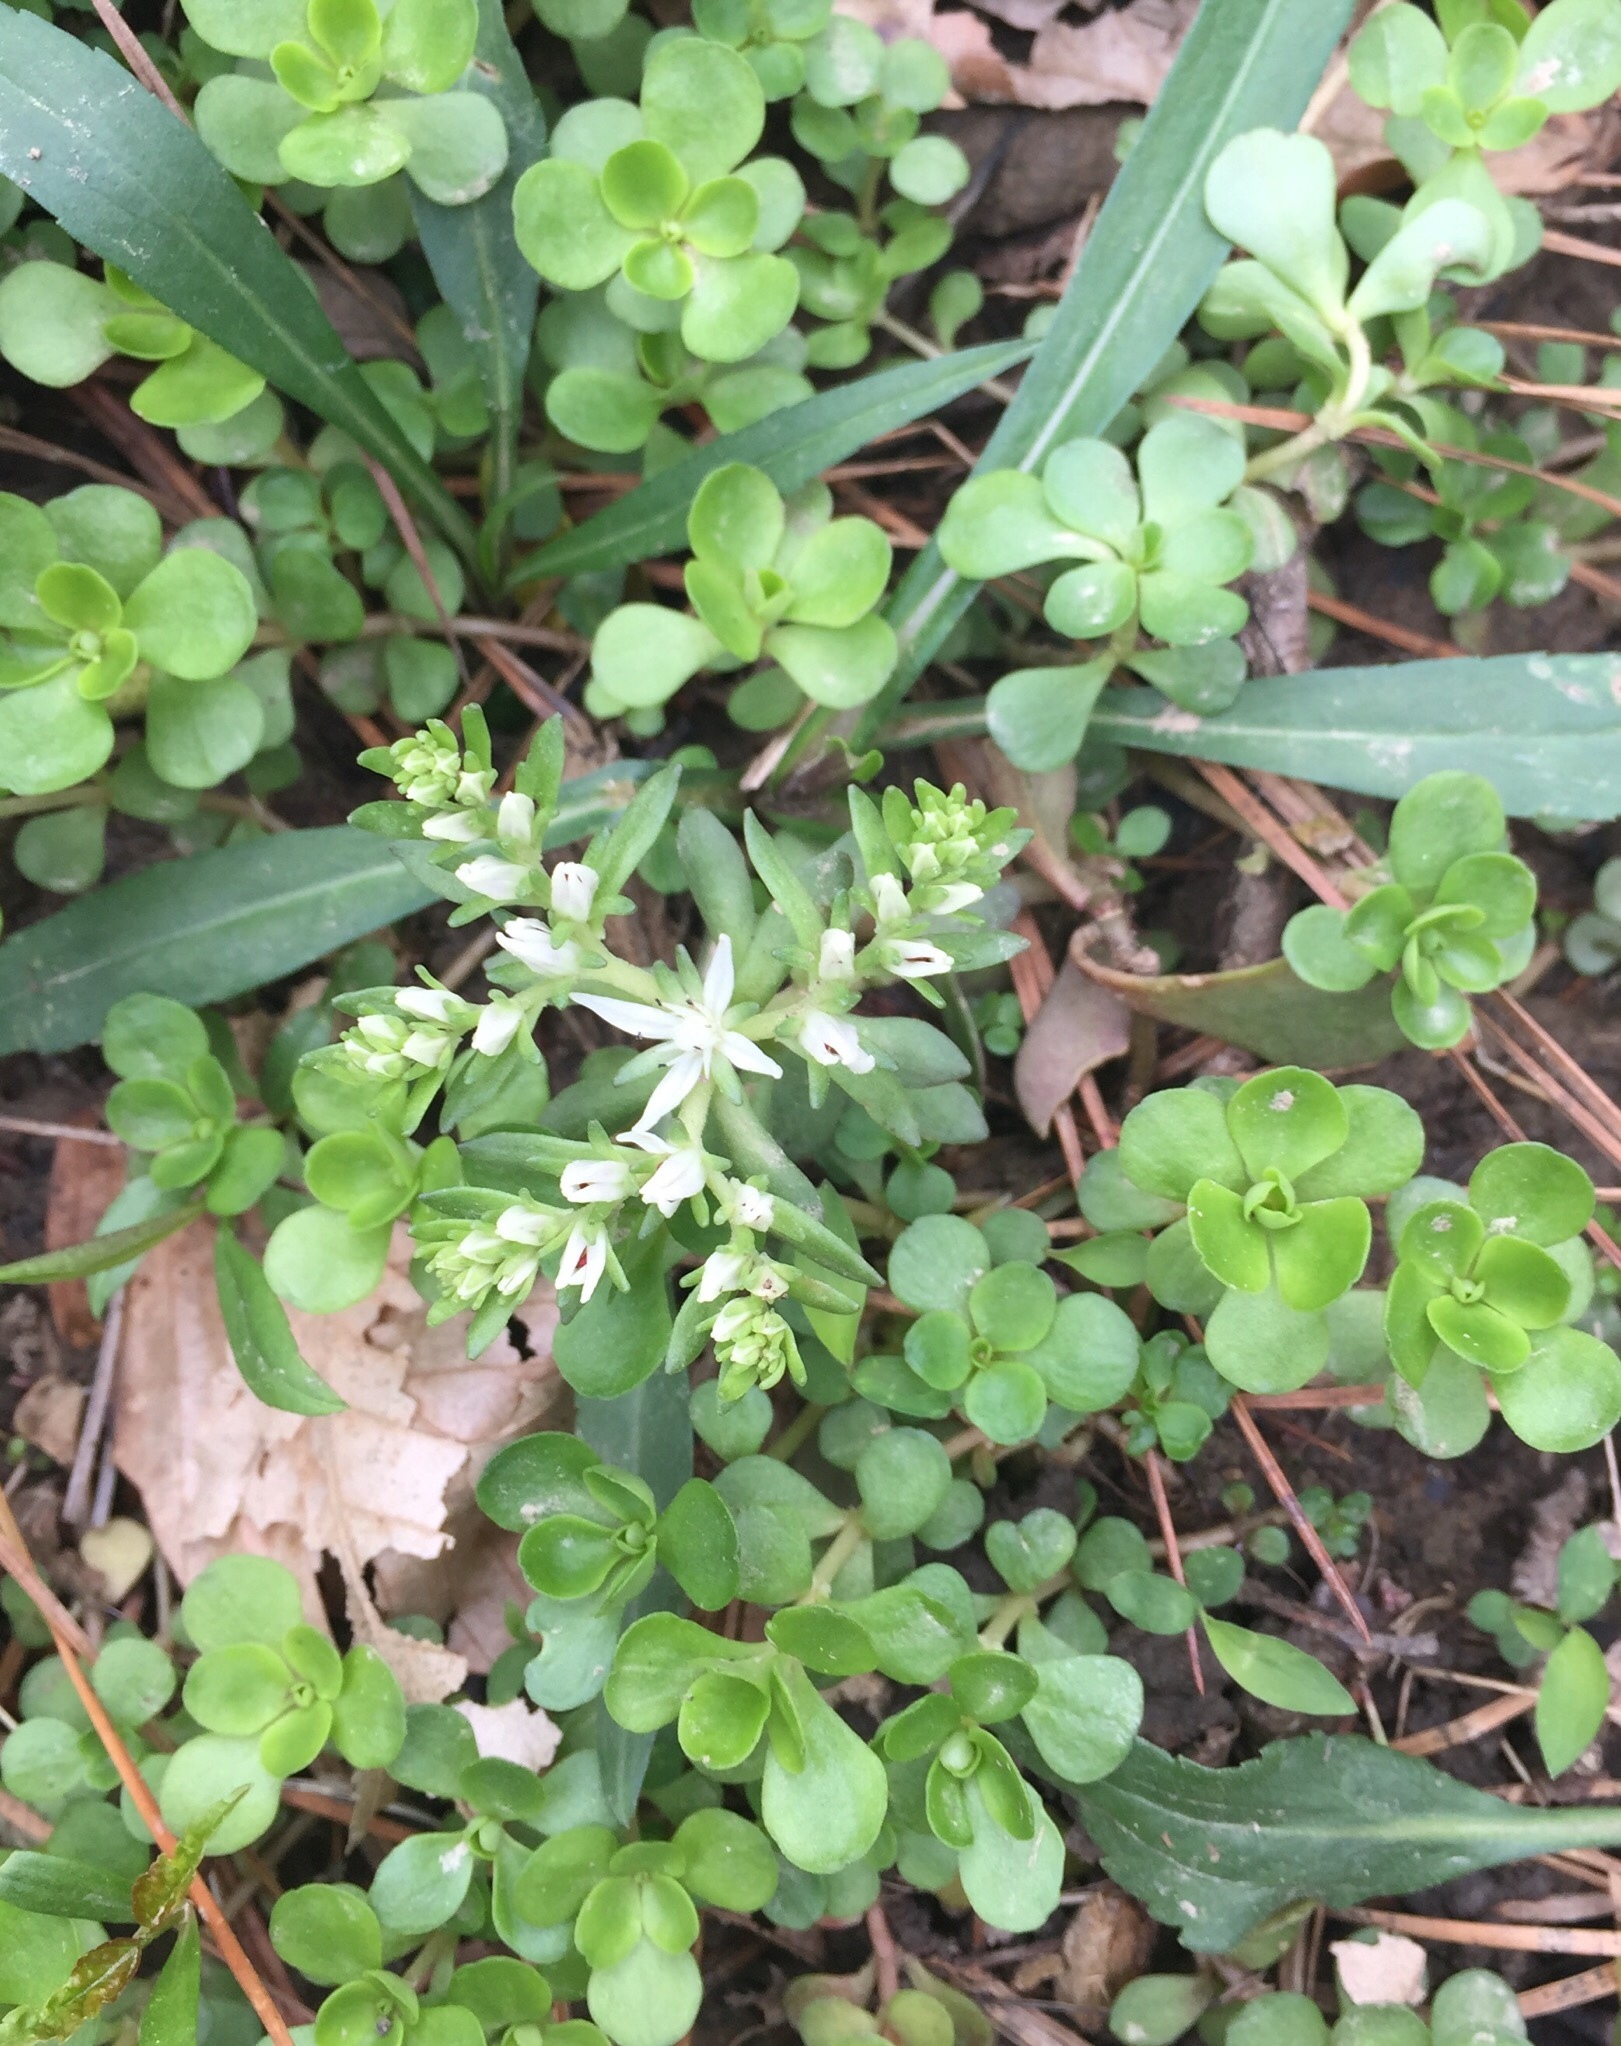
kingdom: Plantae
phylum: Tracheophyta
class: Magnoliopsida
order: Saxifragales
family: Crassulaceae
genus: Sedum
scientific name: Sedum ternatum
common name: Wild stonecrop
